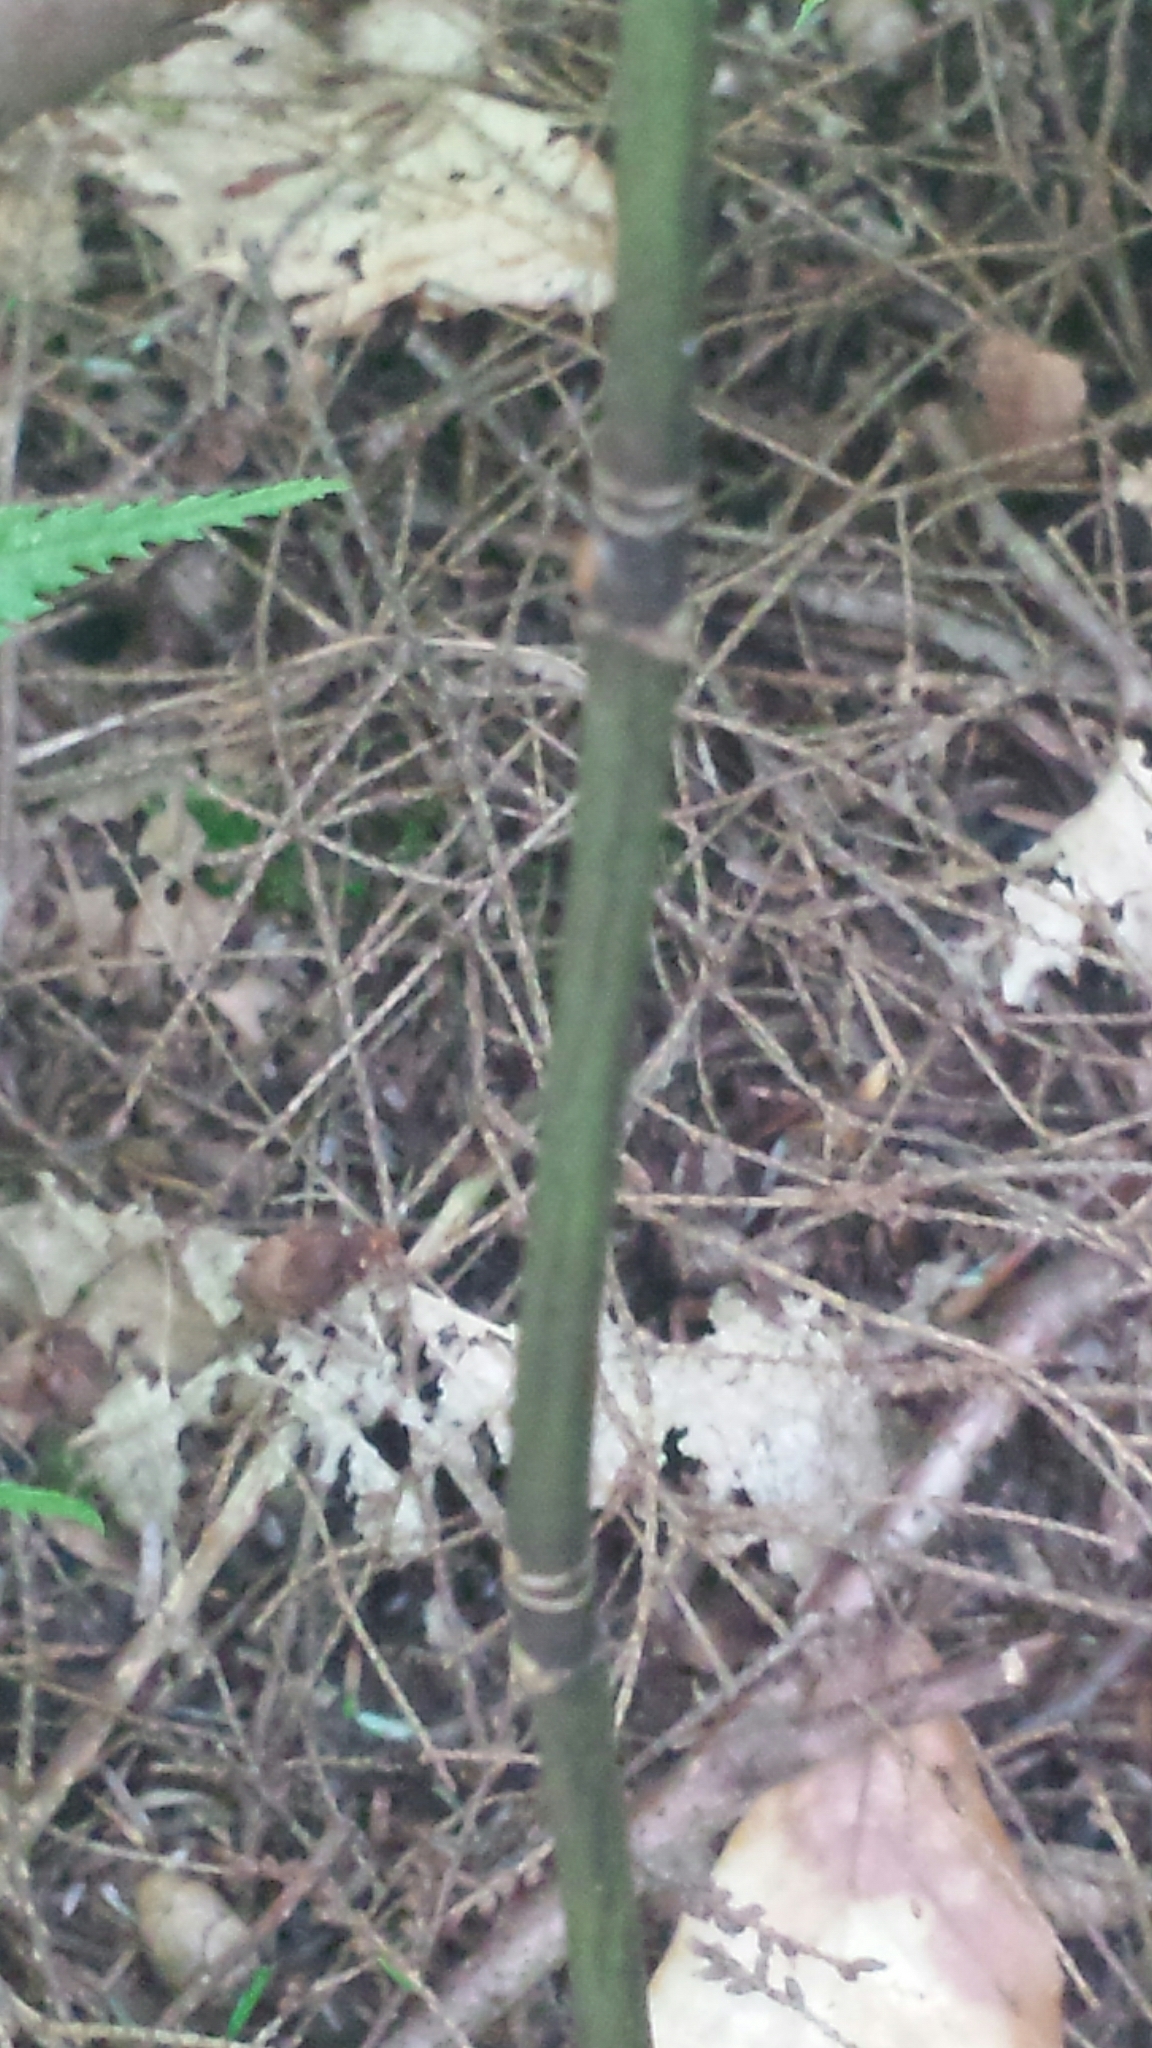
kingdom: Plantae
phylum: Tracheophyta
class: Magnoliopsida
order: Sapindales
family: Sapindaceae
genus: Acer
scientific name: Acer pensylvanicum
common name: Moosewood
